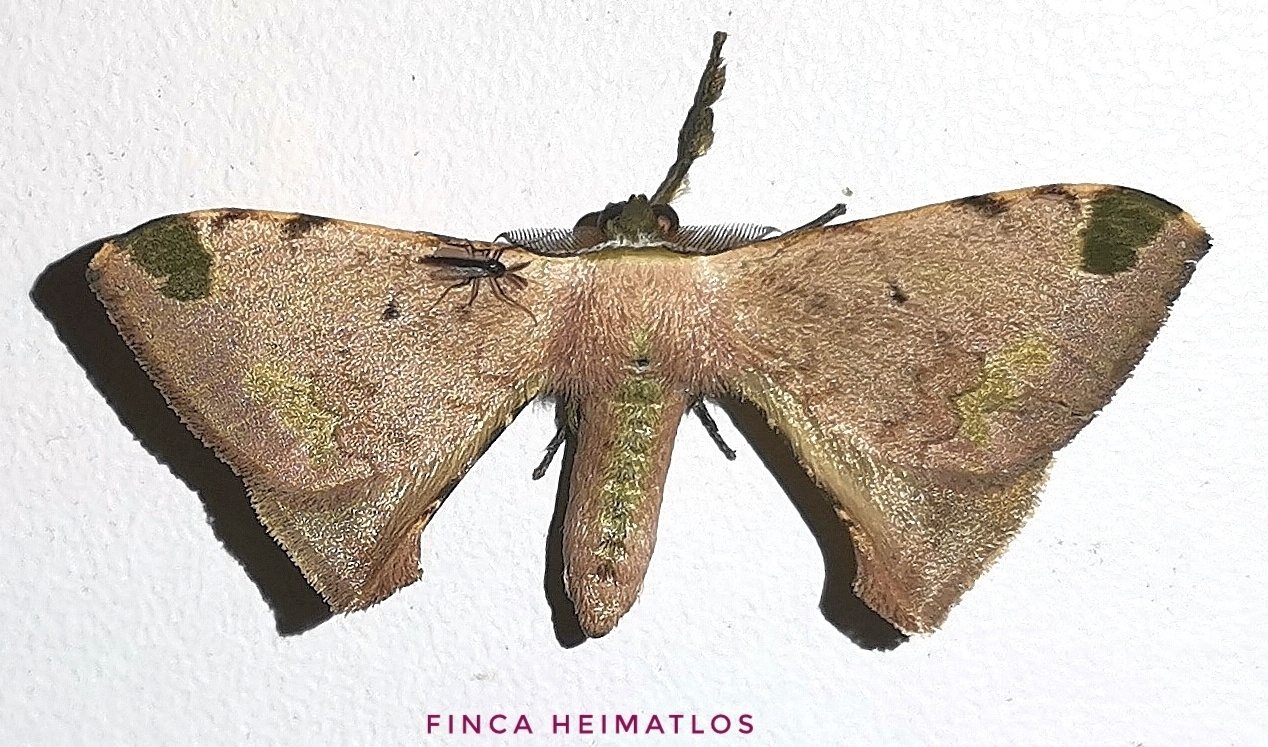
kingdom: Animalia
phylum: Arthropoda
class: Insecta
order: Lepidoptera
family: Bombycidae
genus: Anticla
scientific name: Anticla antica
